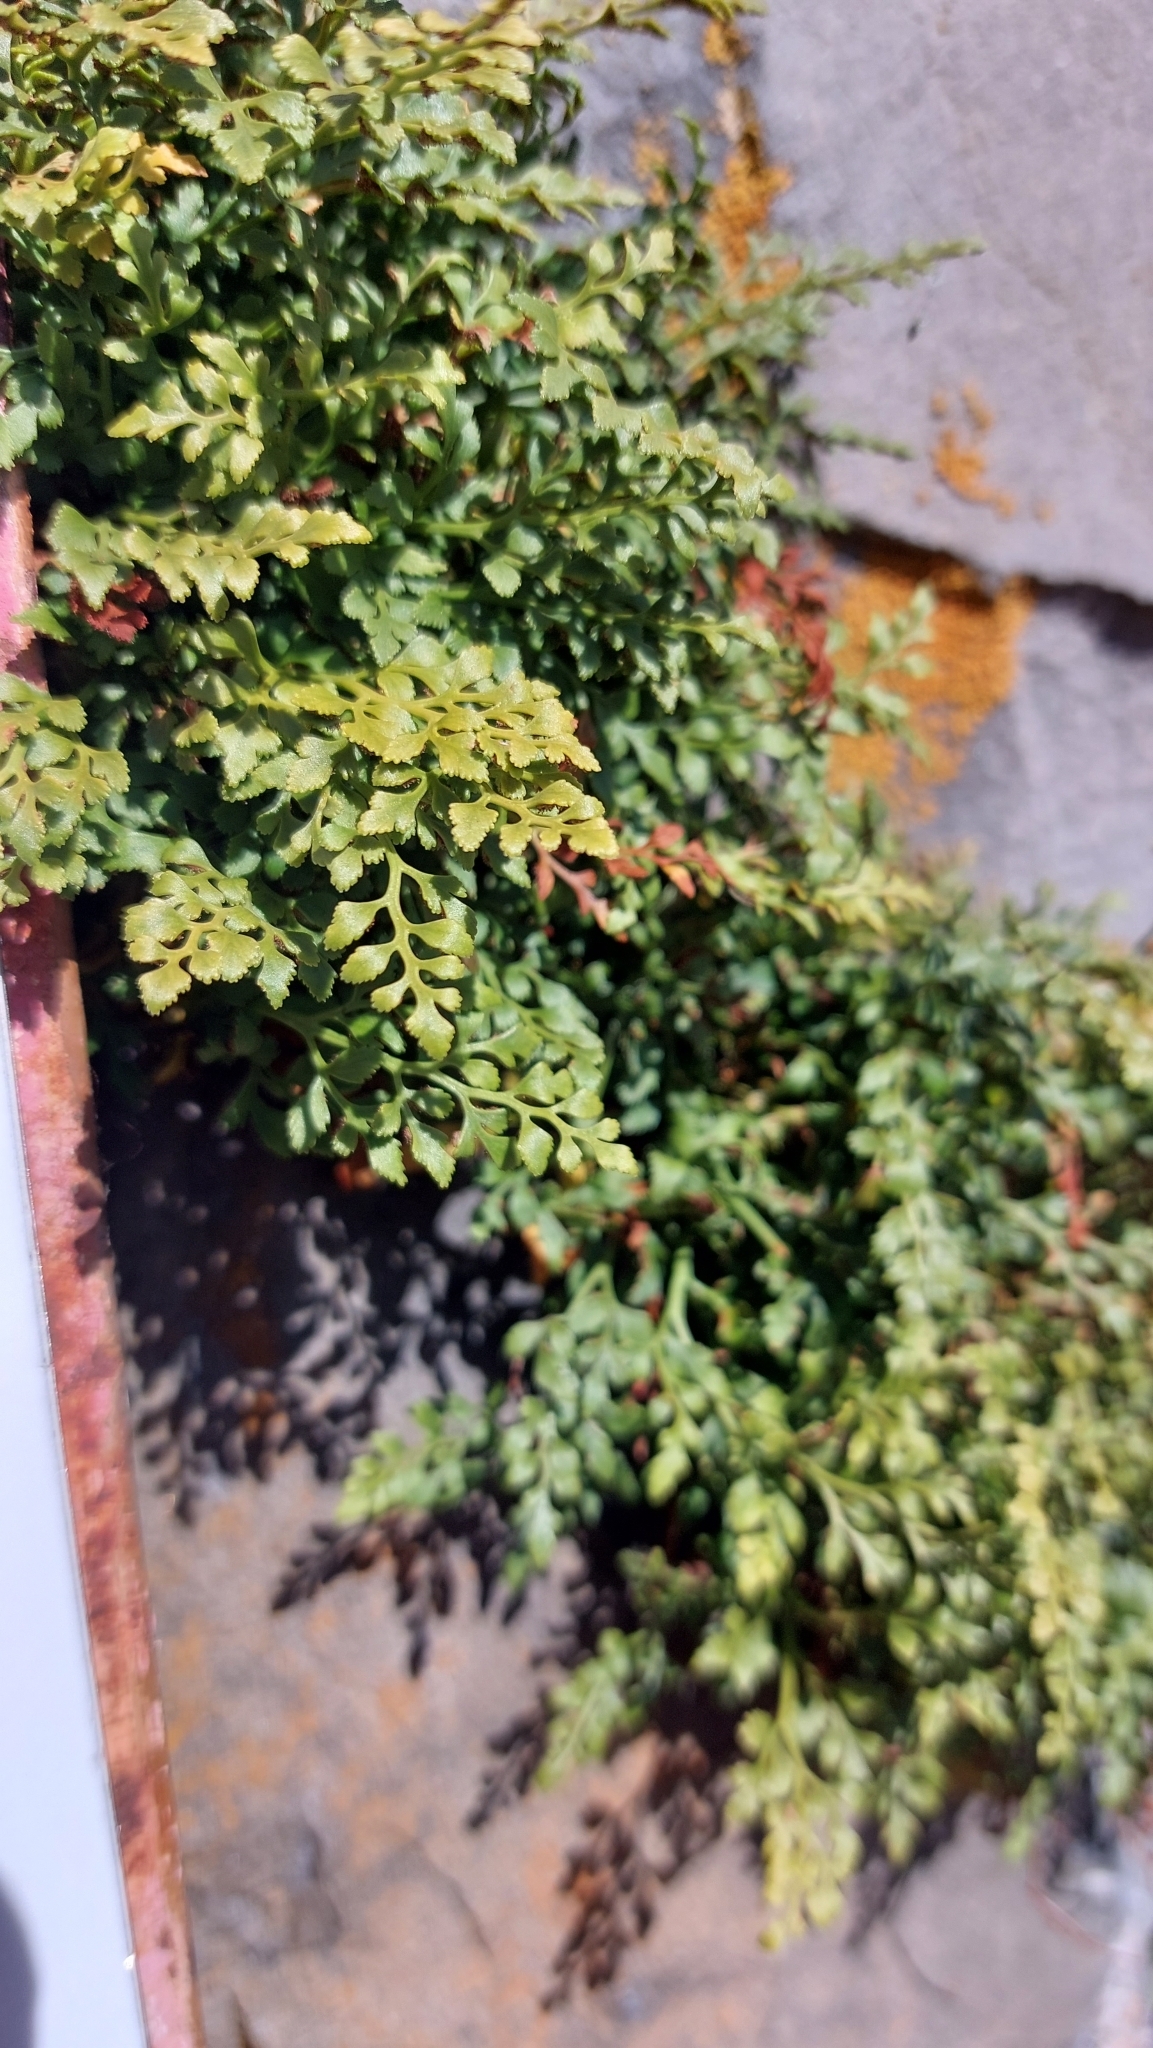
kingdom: Plantae
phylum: Tracheophyta
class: Polypodiopsida
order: Polypodiales
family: Aspleniaceae
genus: Asplenium
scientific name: Asplenium ruta-muraria
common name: Wall-rue
